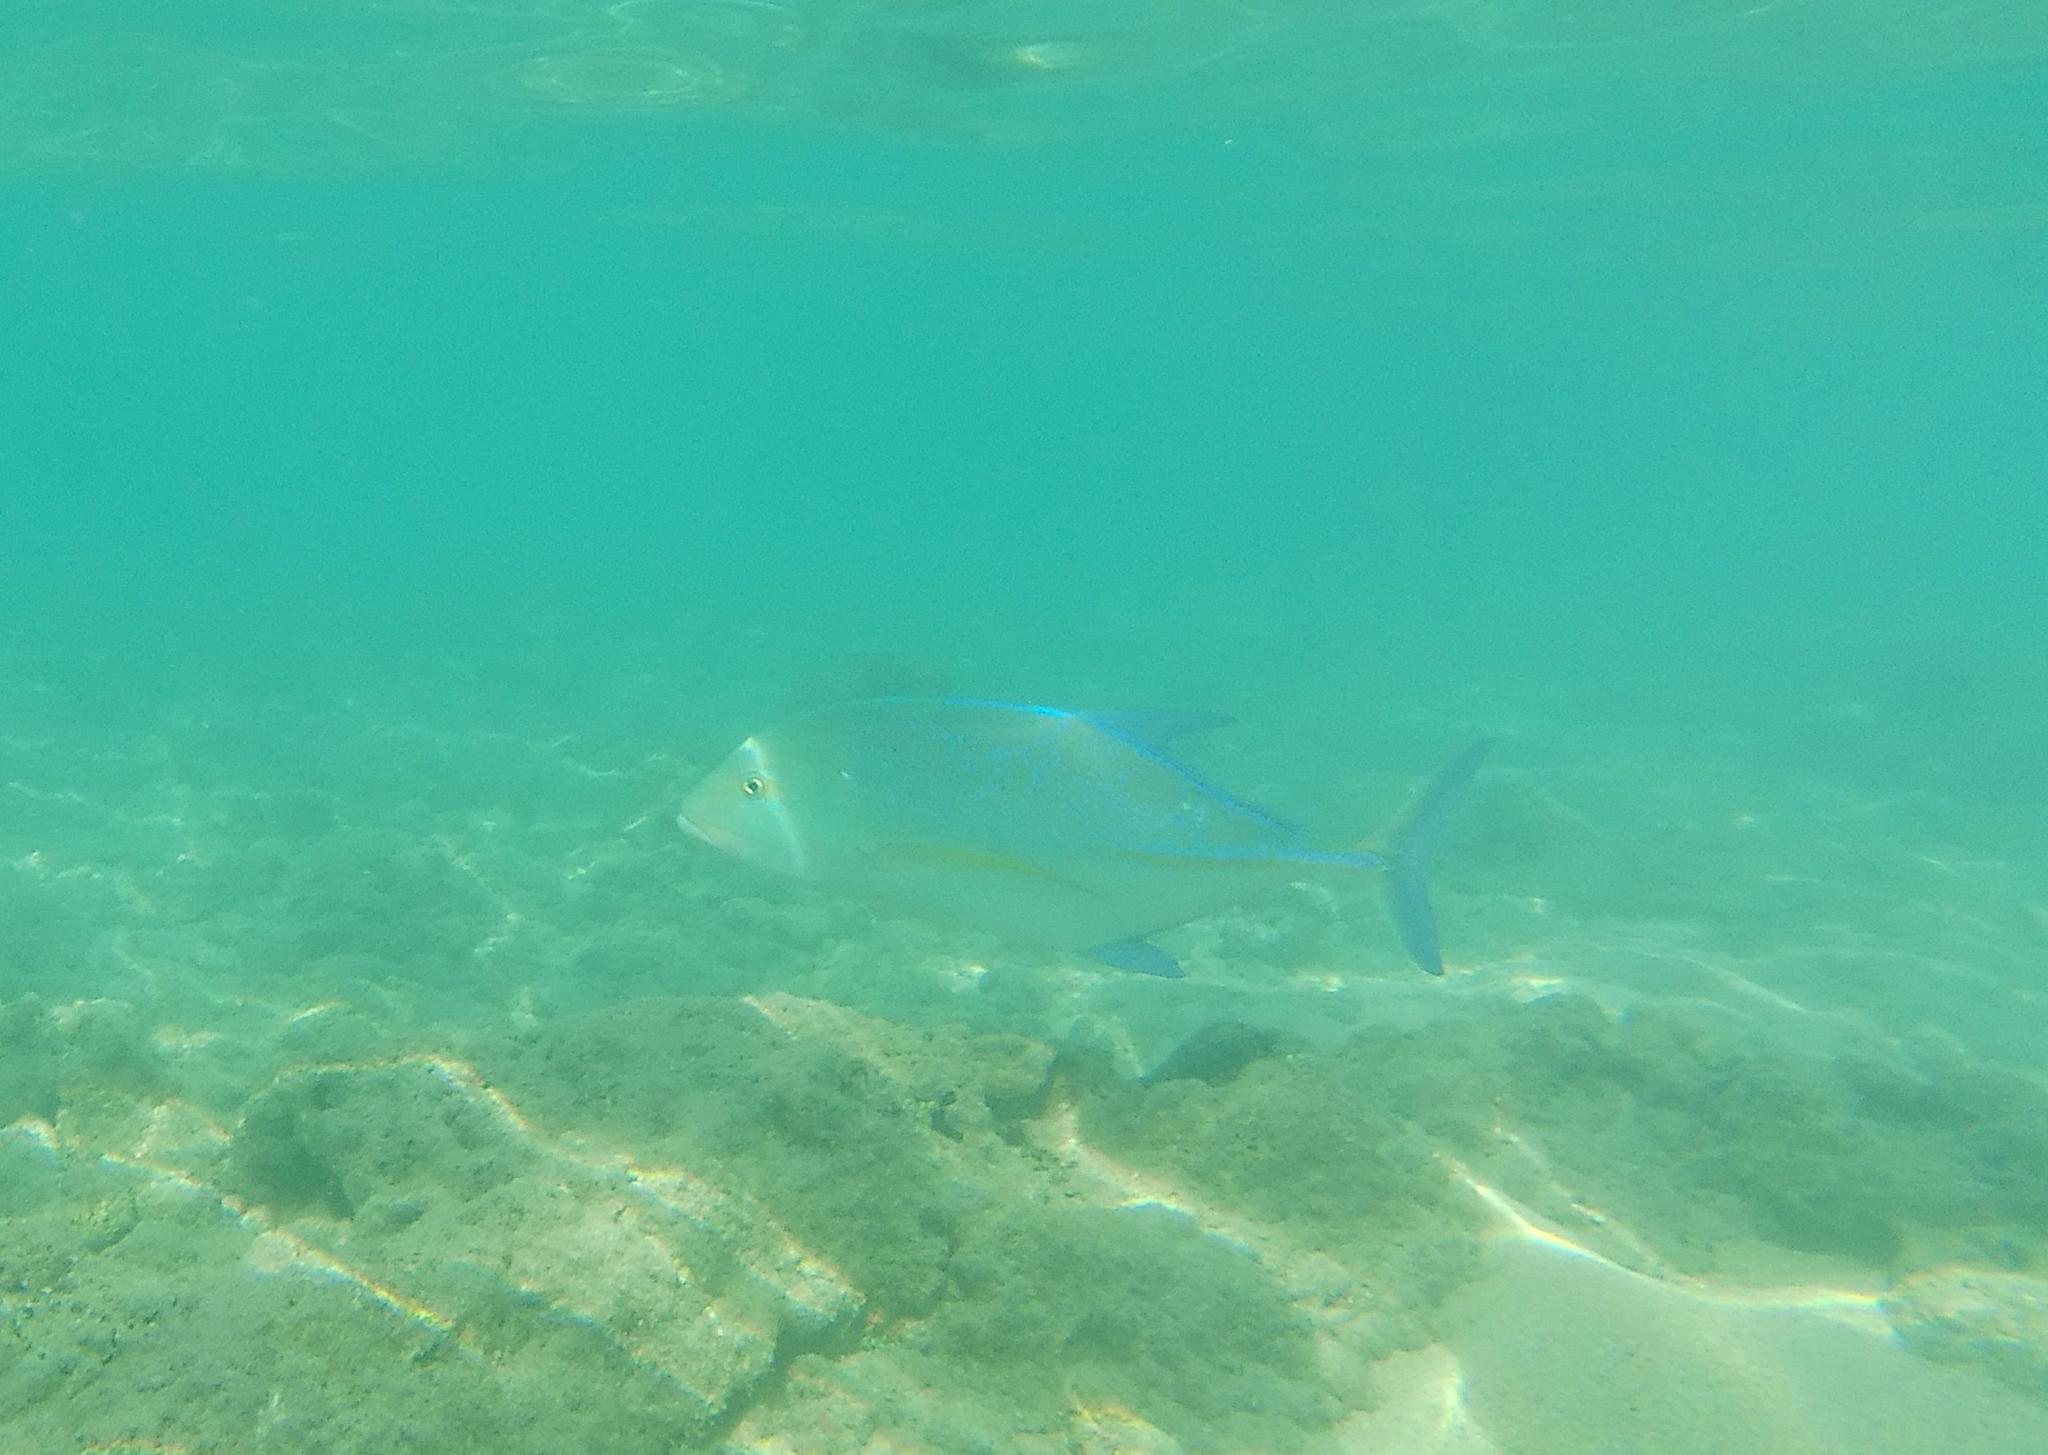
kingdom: Animalia
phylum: Chordata
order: Perciformes
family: Carangidae
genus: Caranx
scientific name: Caranx melampygus
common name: Bluefin trevally
